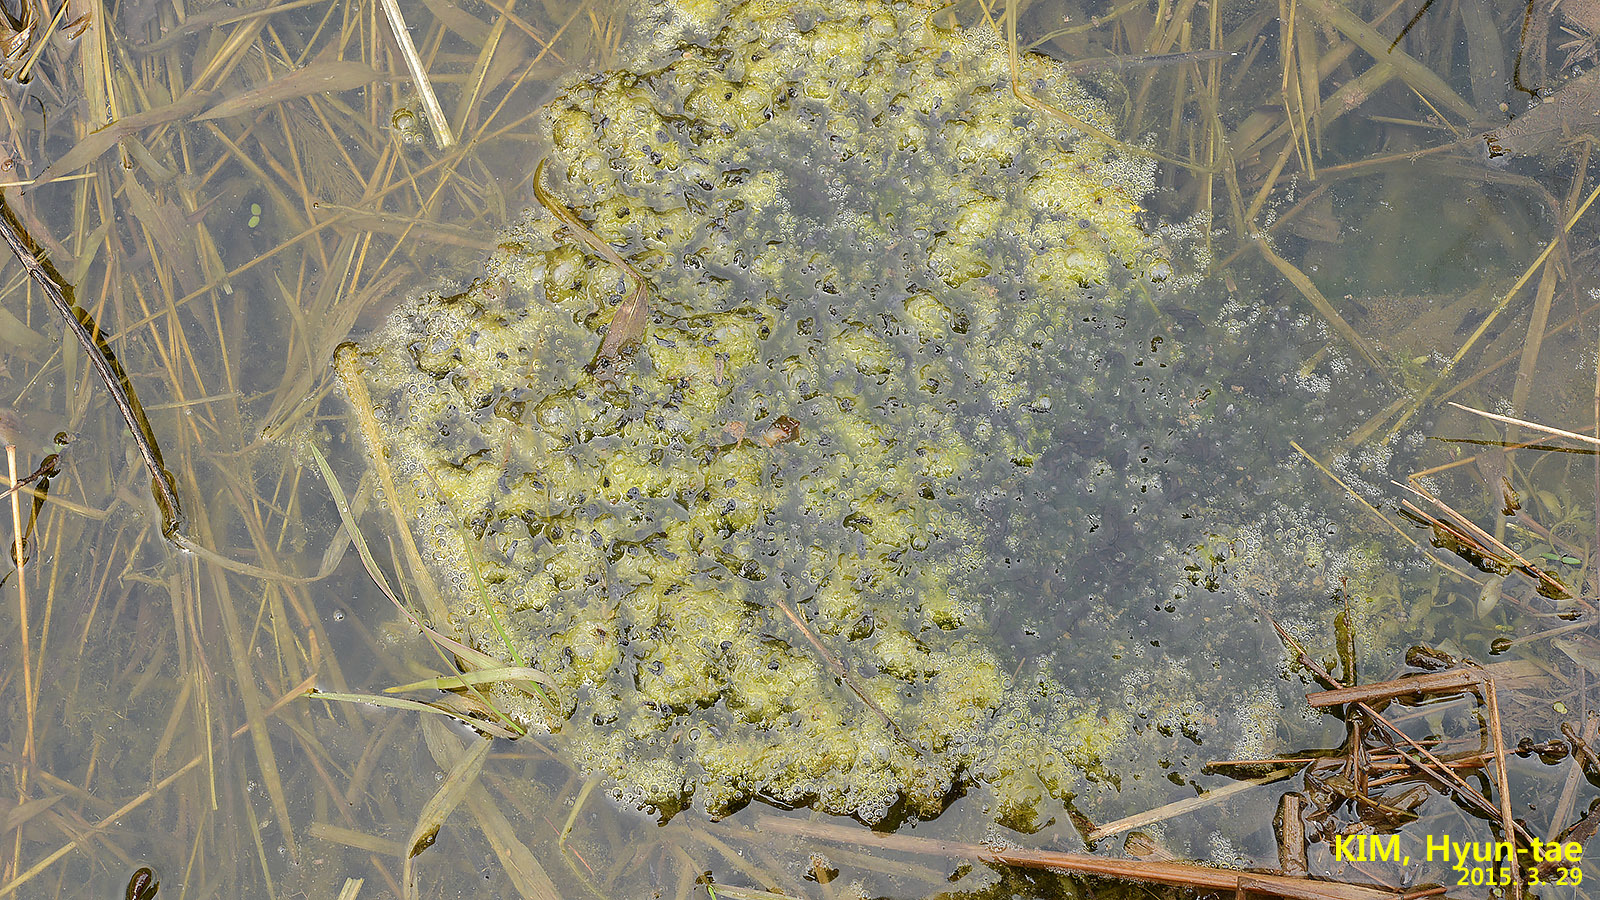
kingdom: Animalia
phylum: Chordata
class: Amphibia
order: Anura
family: Ranidae
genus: Rana
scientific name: Rana uenoi
